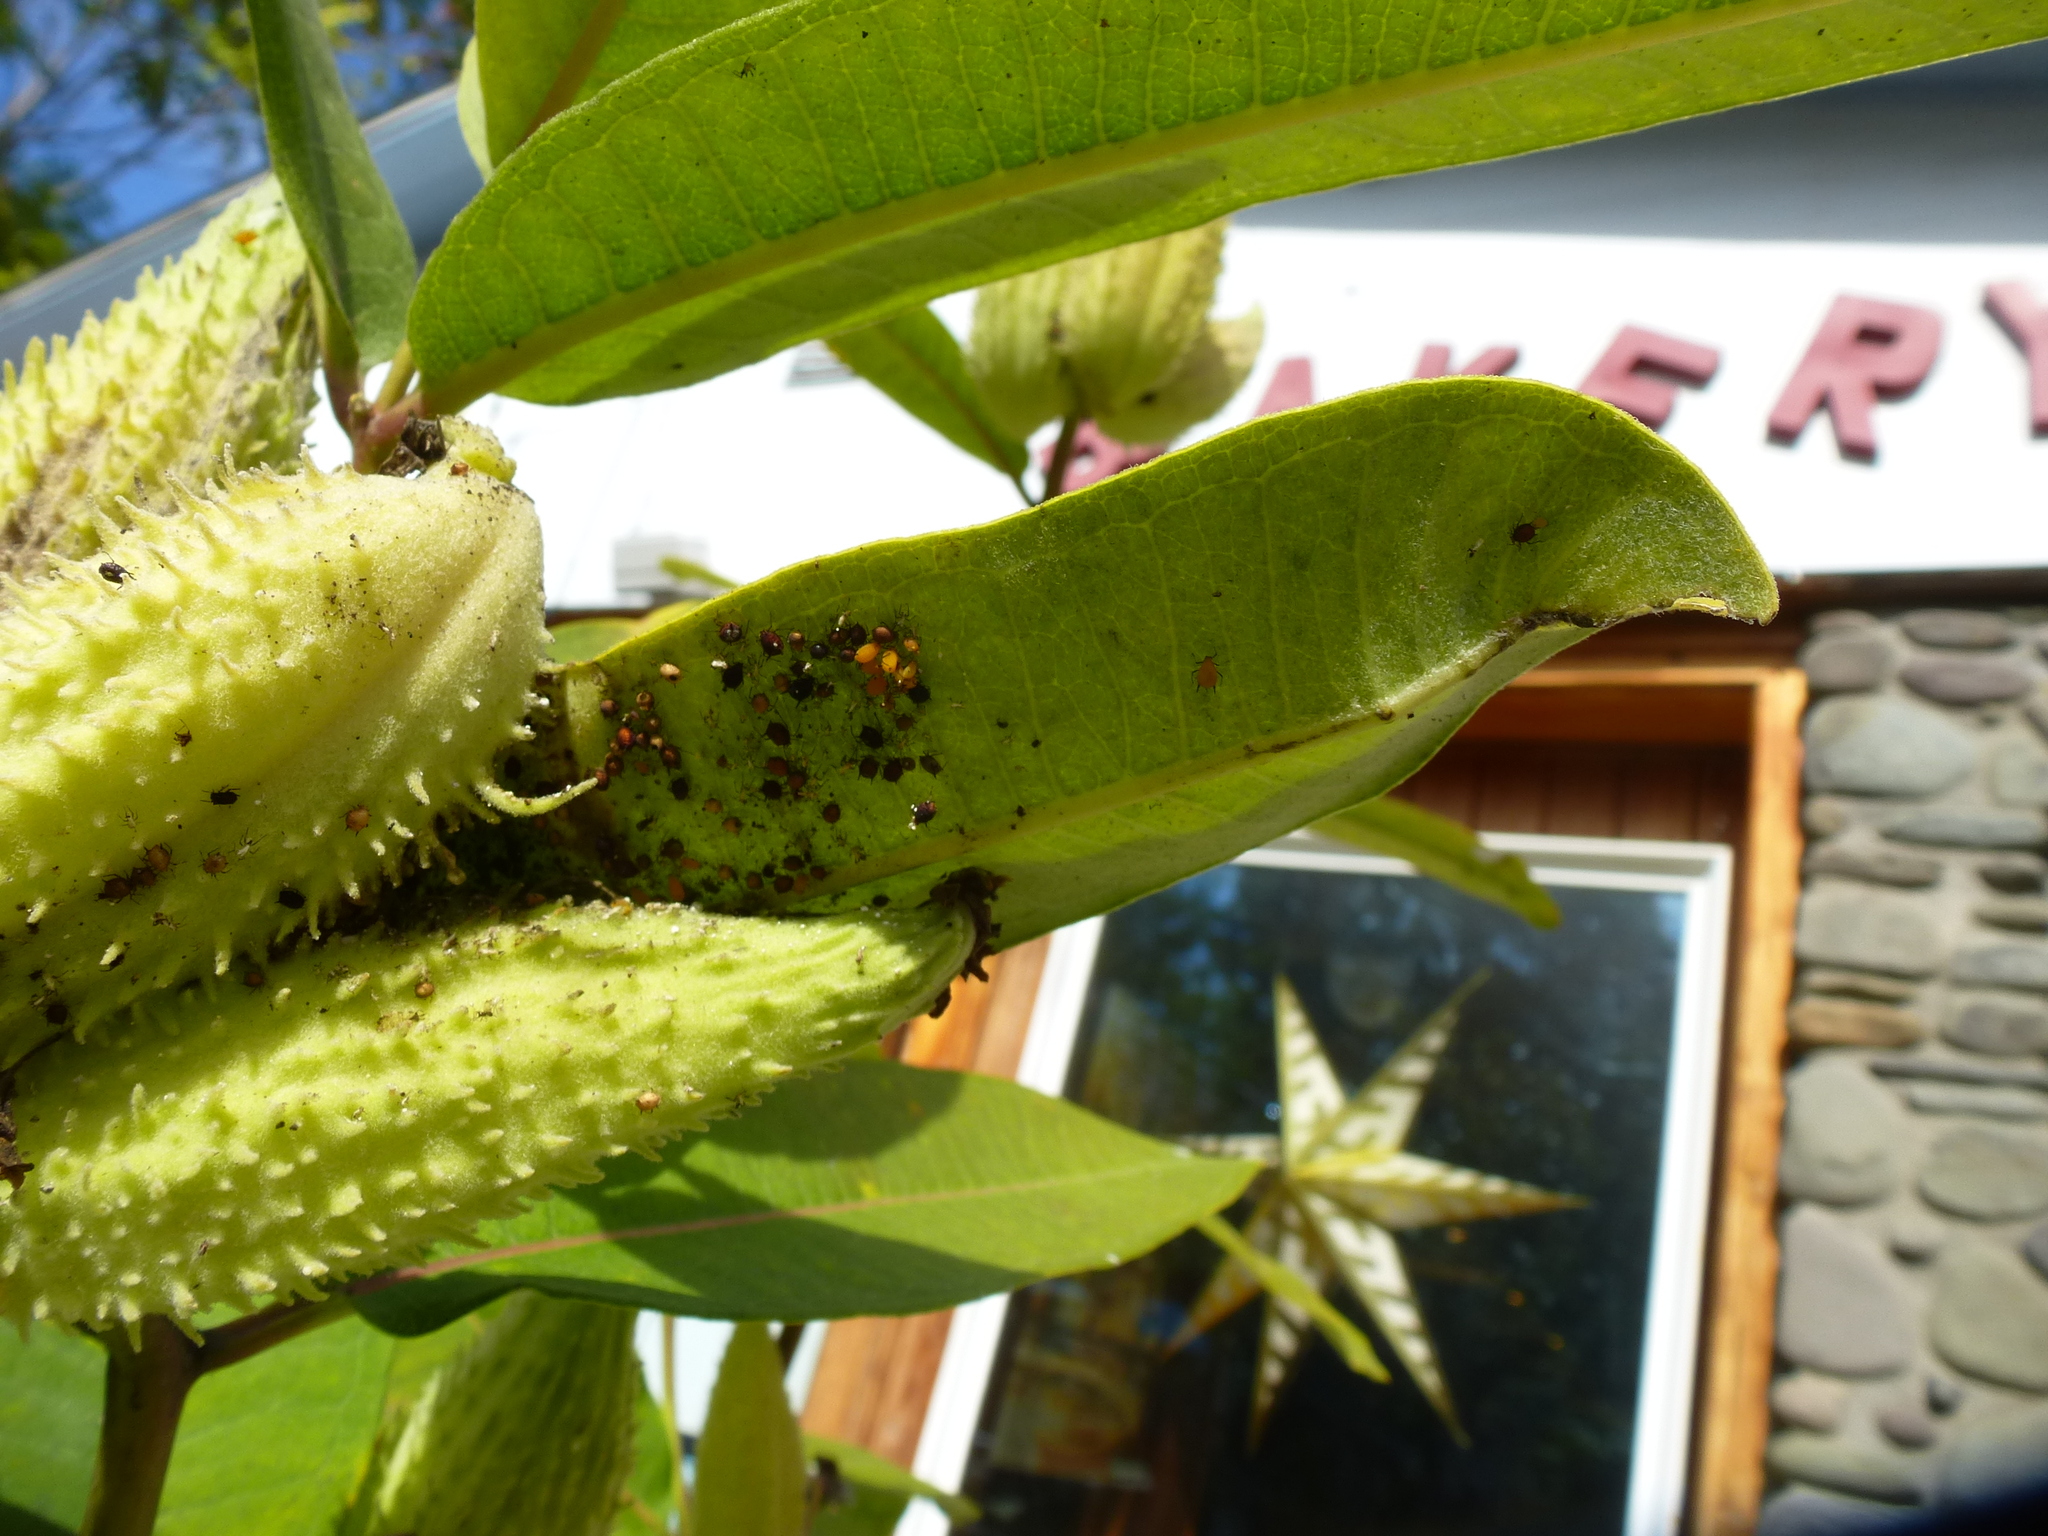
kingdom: Animalia
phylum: Arthropoda
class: Insecta
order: Hemiptera
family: Aphididae
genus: Aphis
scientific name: Aphis nerii
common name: Oleander aphid
